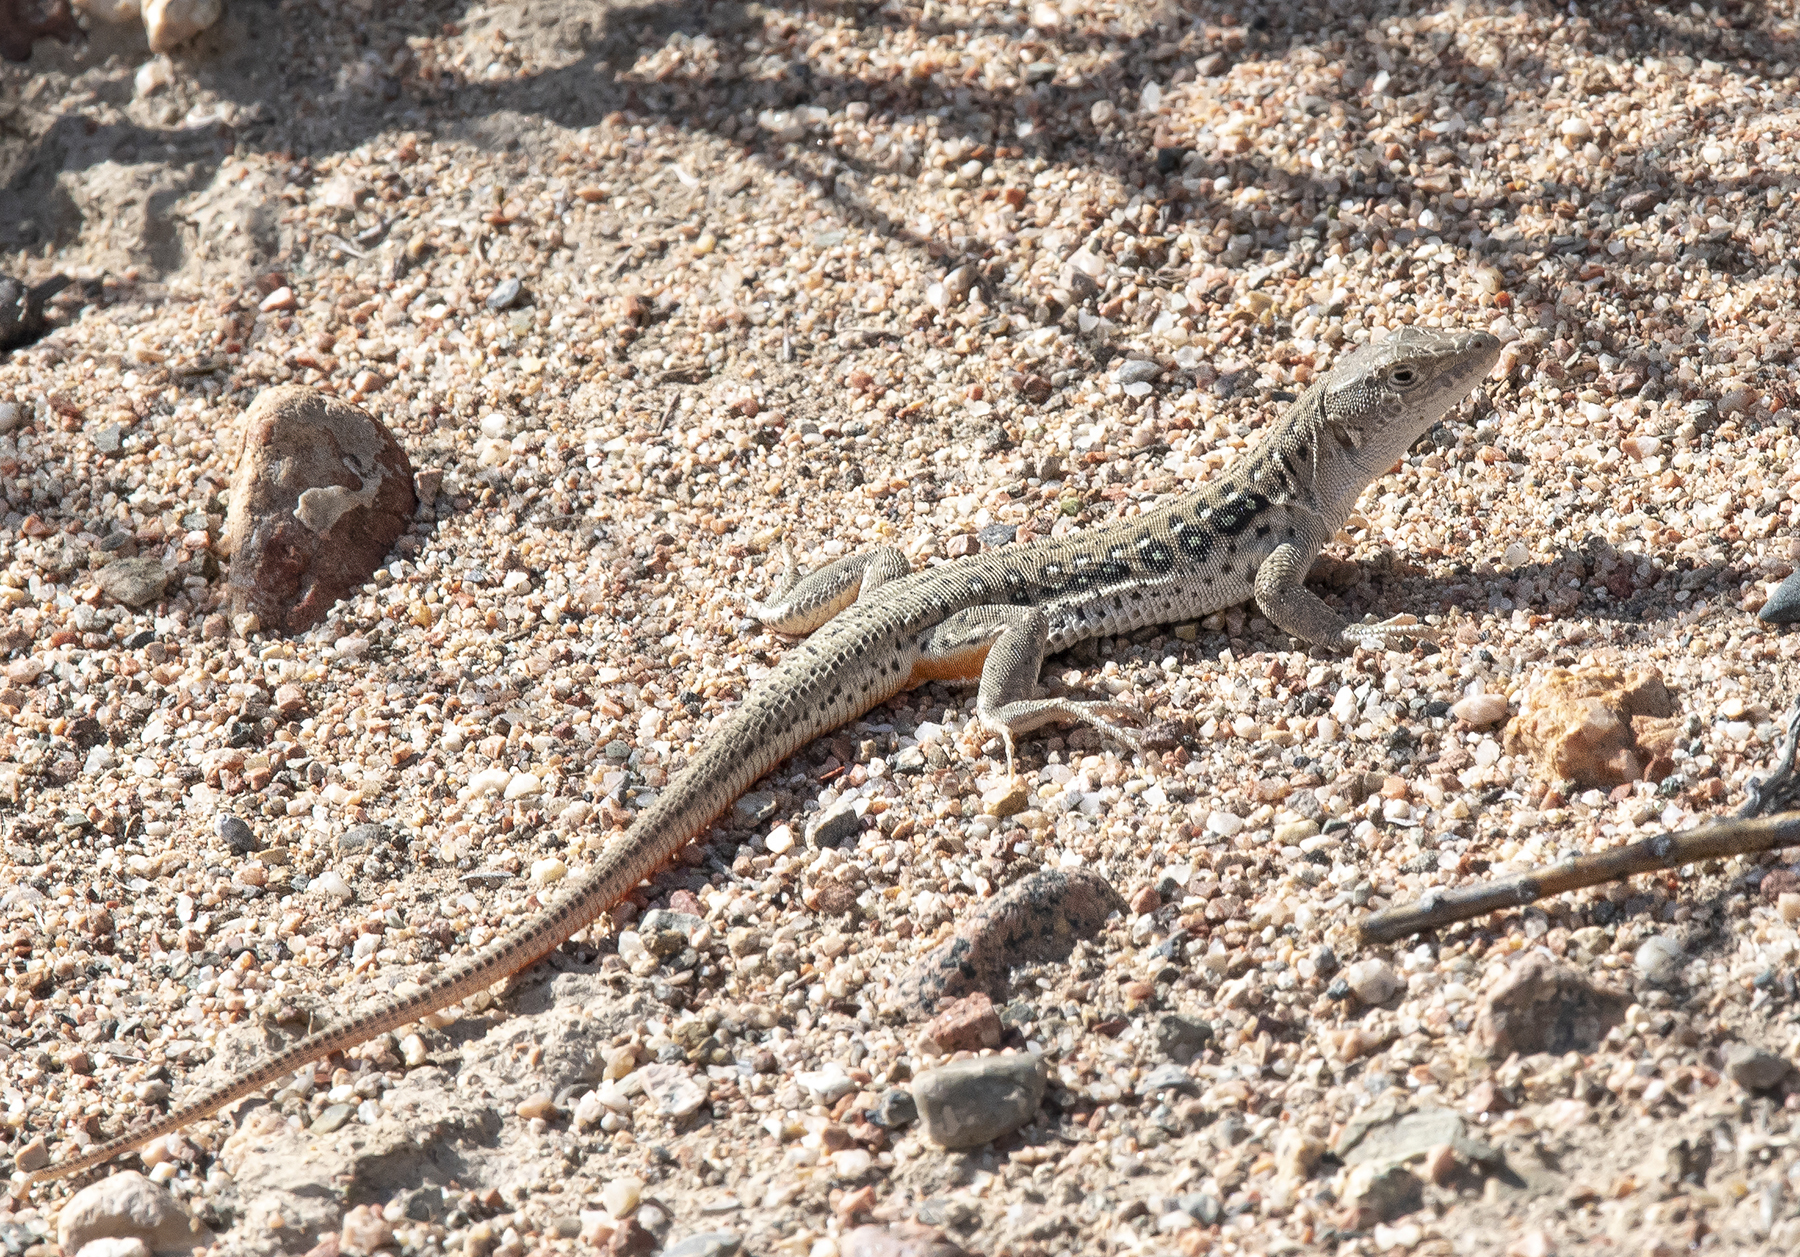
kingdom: Animalia
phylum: Chordata
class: Squamata
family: Lacertidae
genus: Eremias
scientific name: Eremias velox
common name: Central asian racerunner
